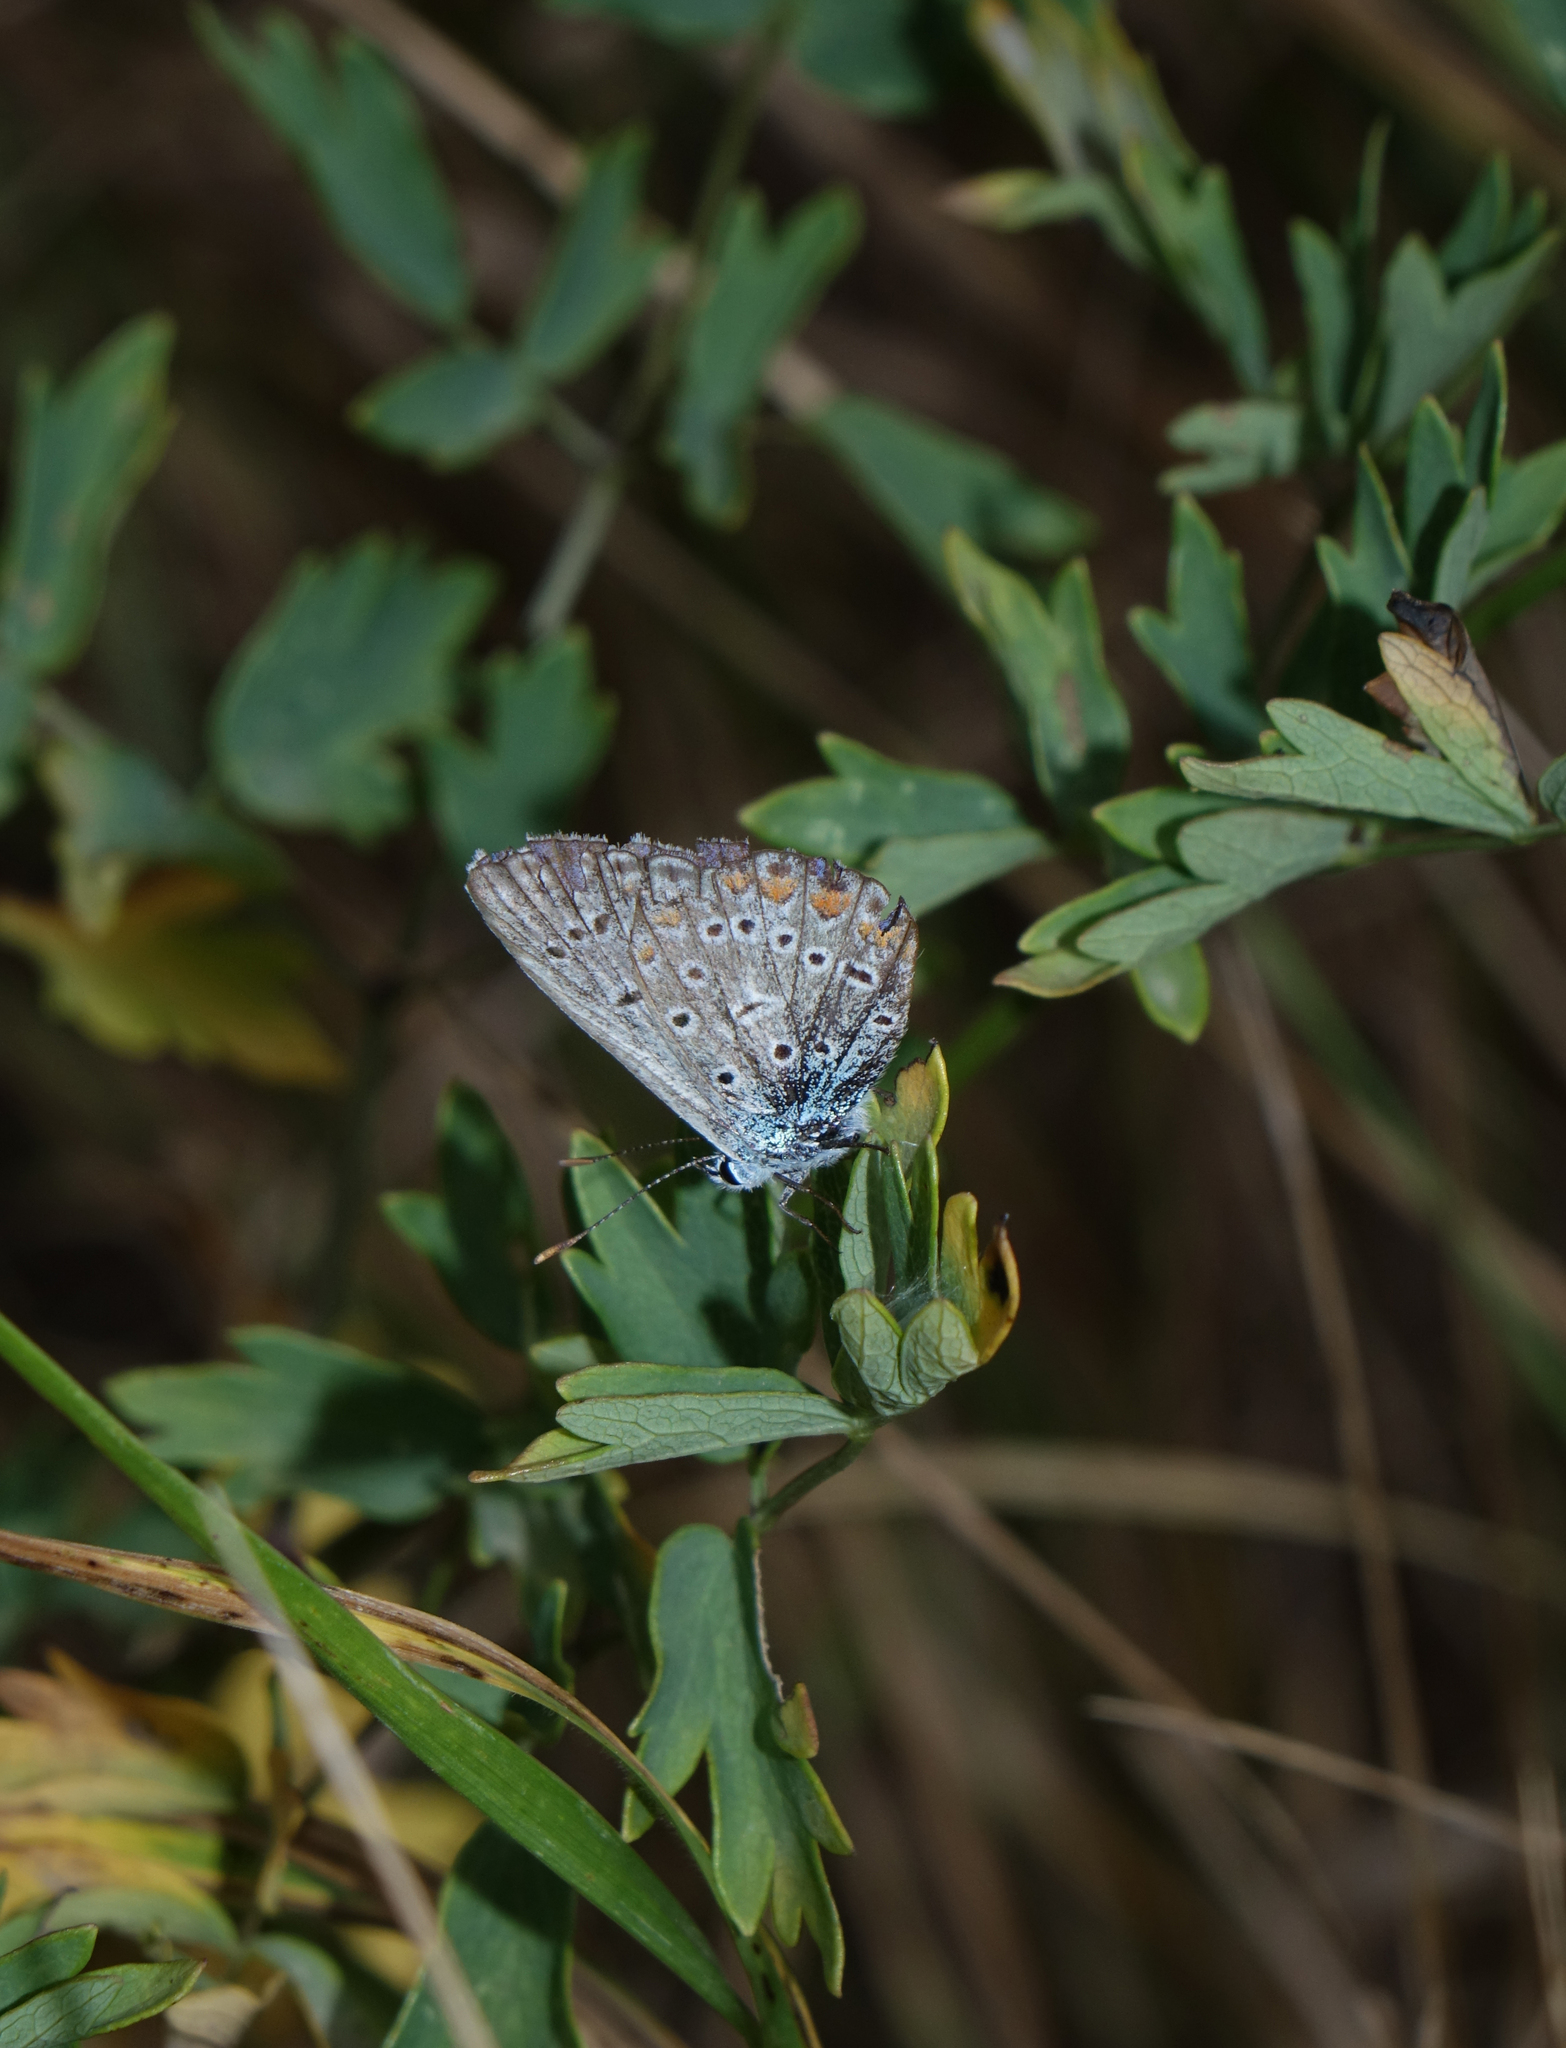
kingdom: Animalia
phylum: Arthropoda
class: Insecta
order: Lepidoptera
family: Lycaenidae
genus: Polyommatus
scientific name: Polyommatus icarus
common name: Common blue
